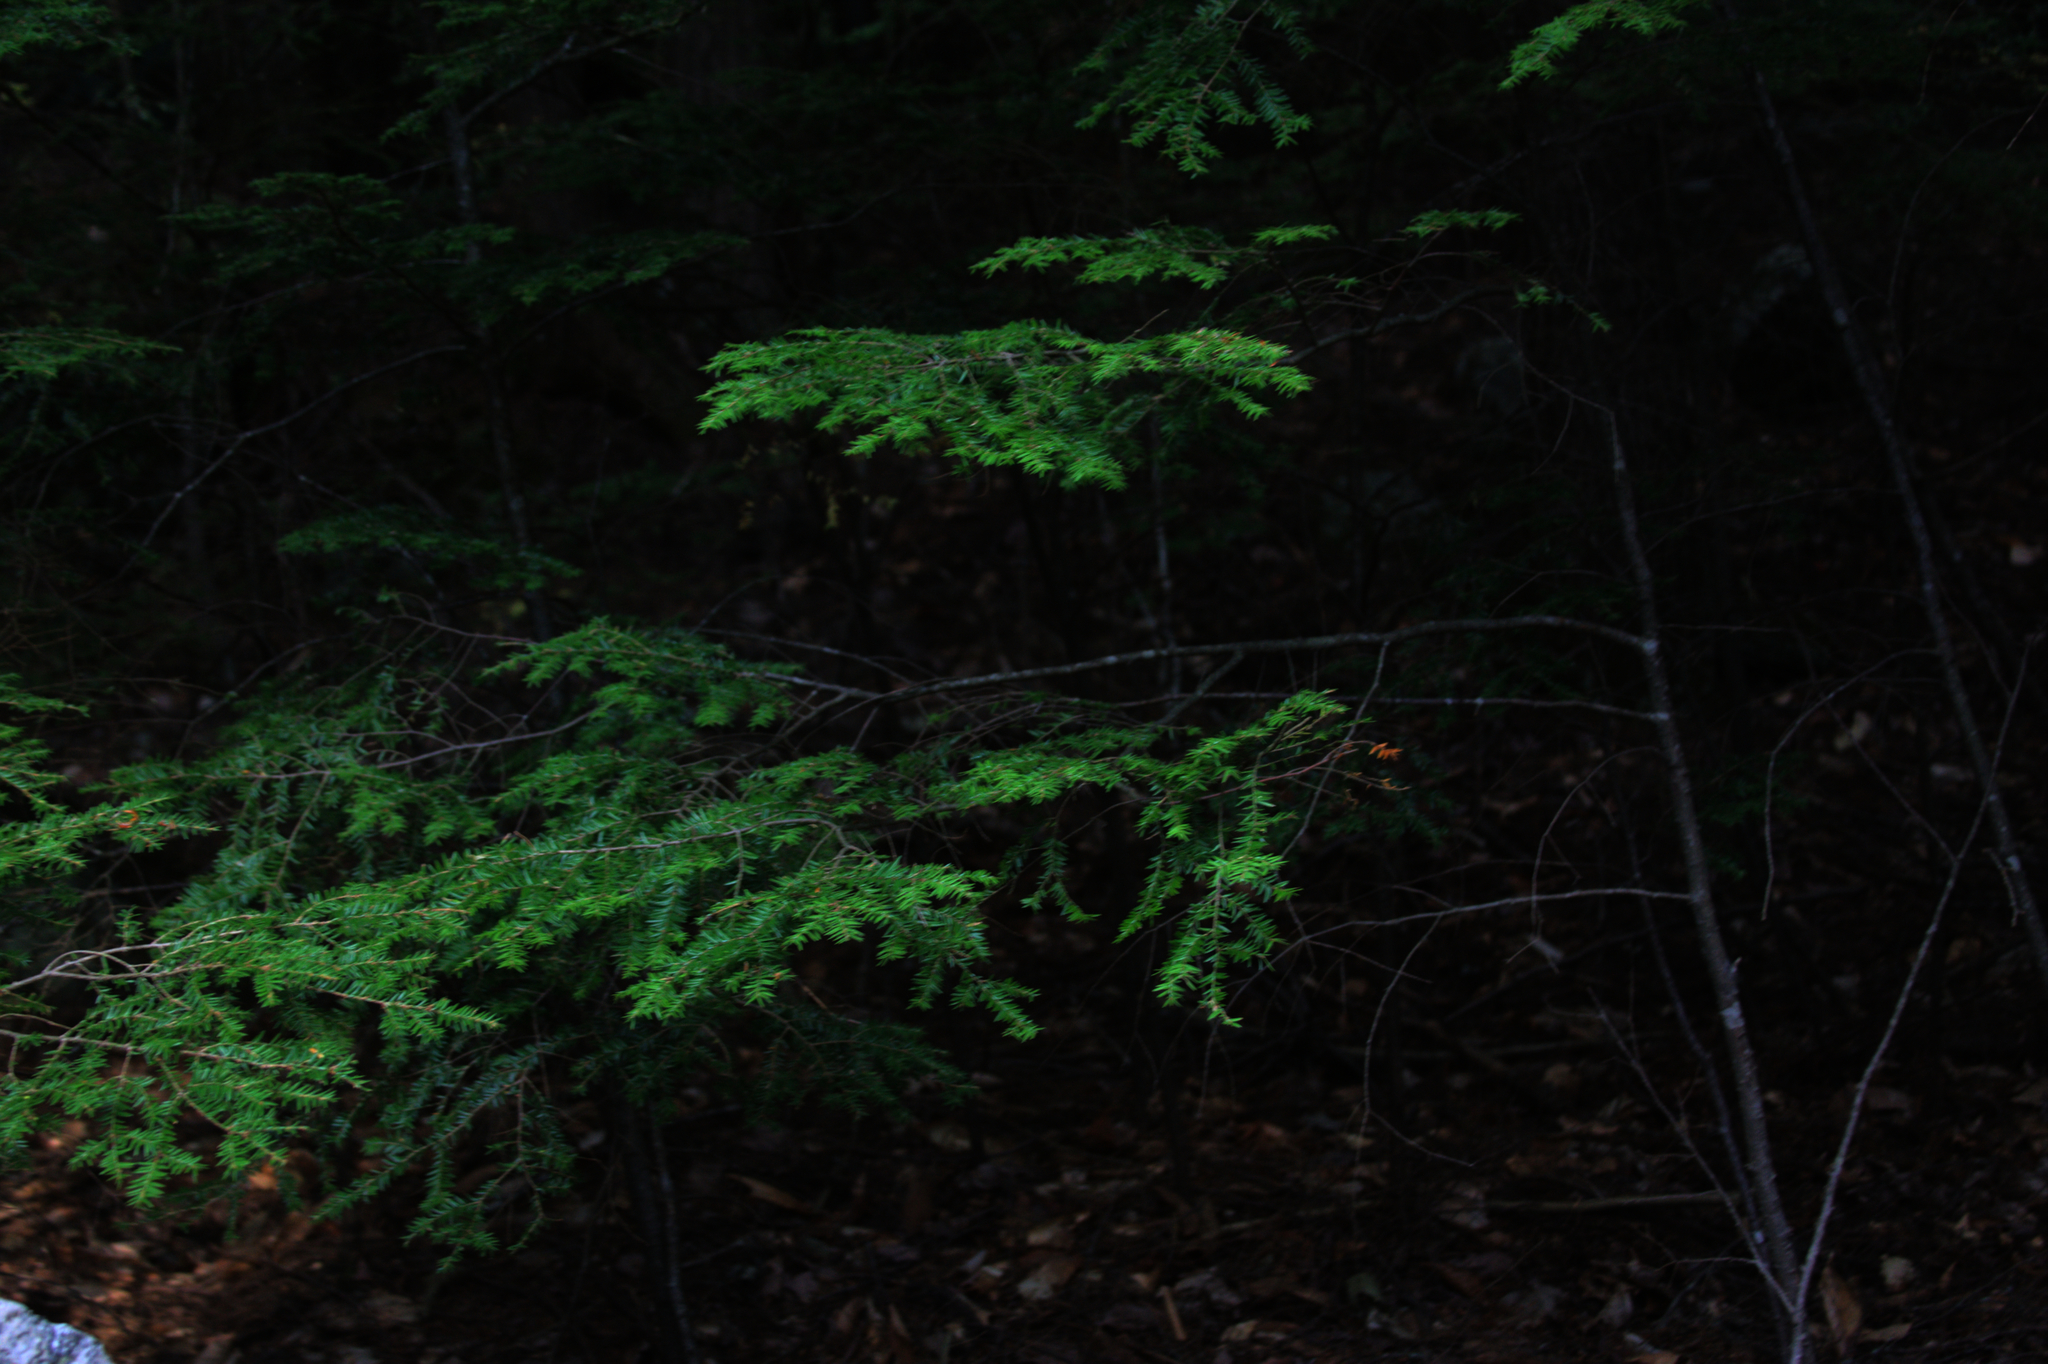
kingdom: Plantae
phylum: Tracheophyta
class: Pinopsida
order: Pinales
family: Pinaceae
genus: Tsuga
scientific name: Tsuga canadensis
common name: Eastern hemlock
